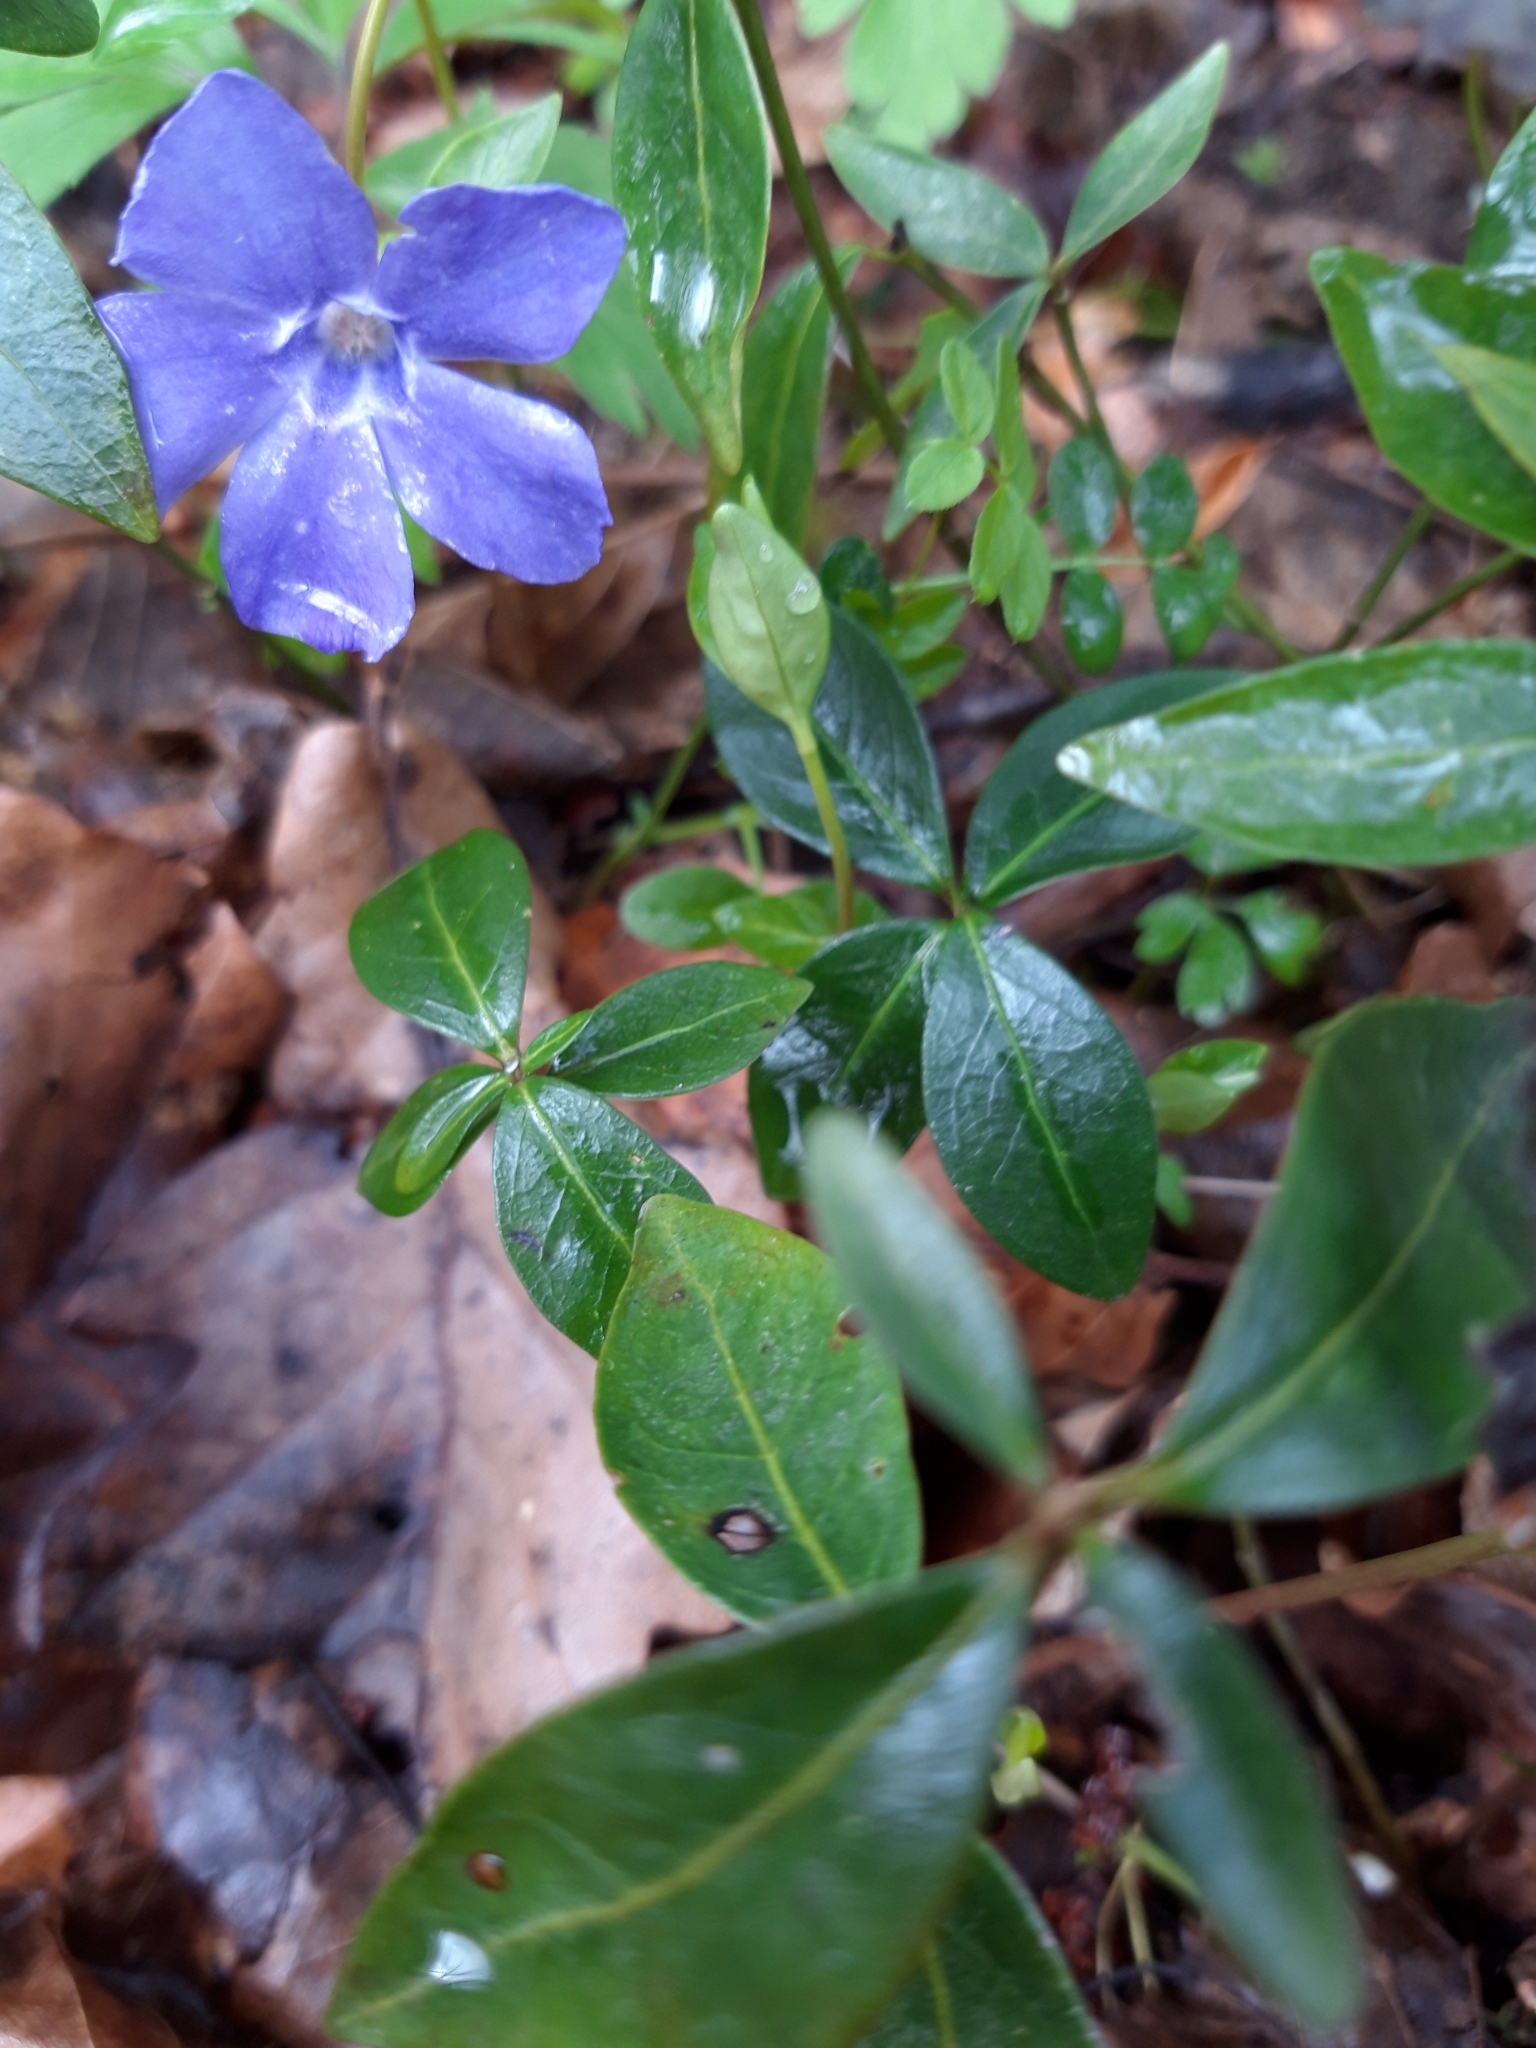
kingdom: Plantae
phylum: Tracheophyta
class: Magnoliopsida
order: Gentianales
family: Apocynaceae
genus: Vinca
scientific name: Vinca minor
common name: Lesser periwinkle
